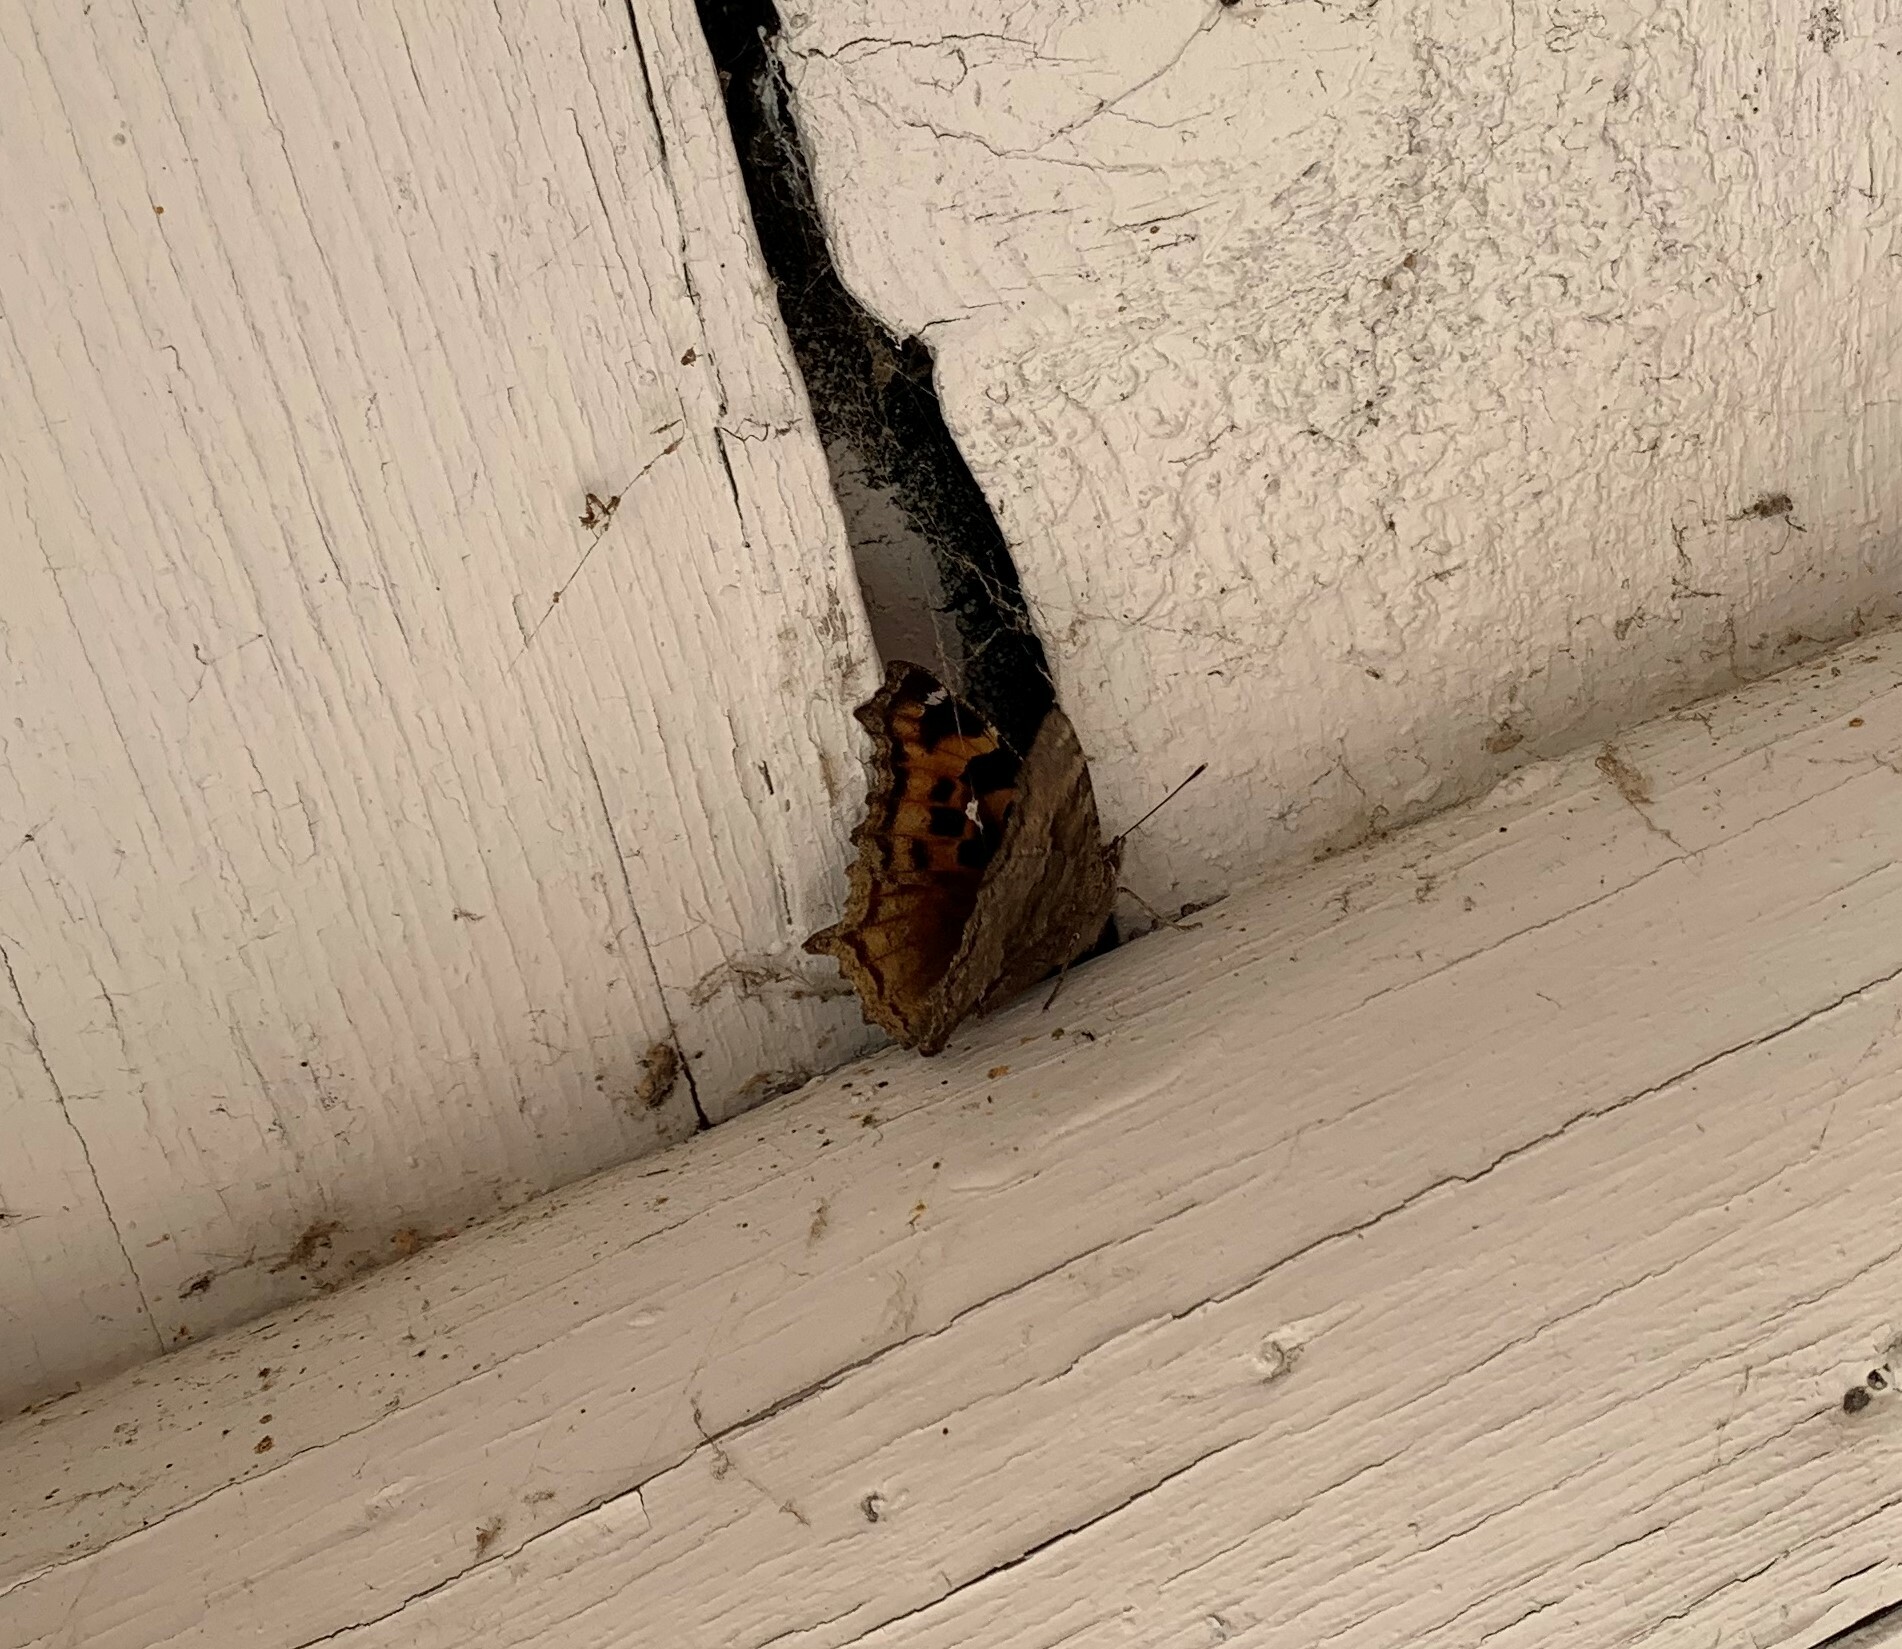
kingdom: Animalia
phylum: Arthropoda
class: Insecta
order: Lepidoptera
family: Nymphalidae
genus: Polygonia
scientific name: Polygonia vaualbum
